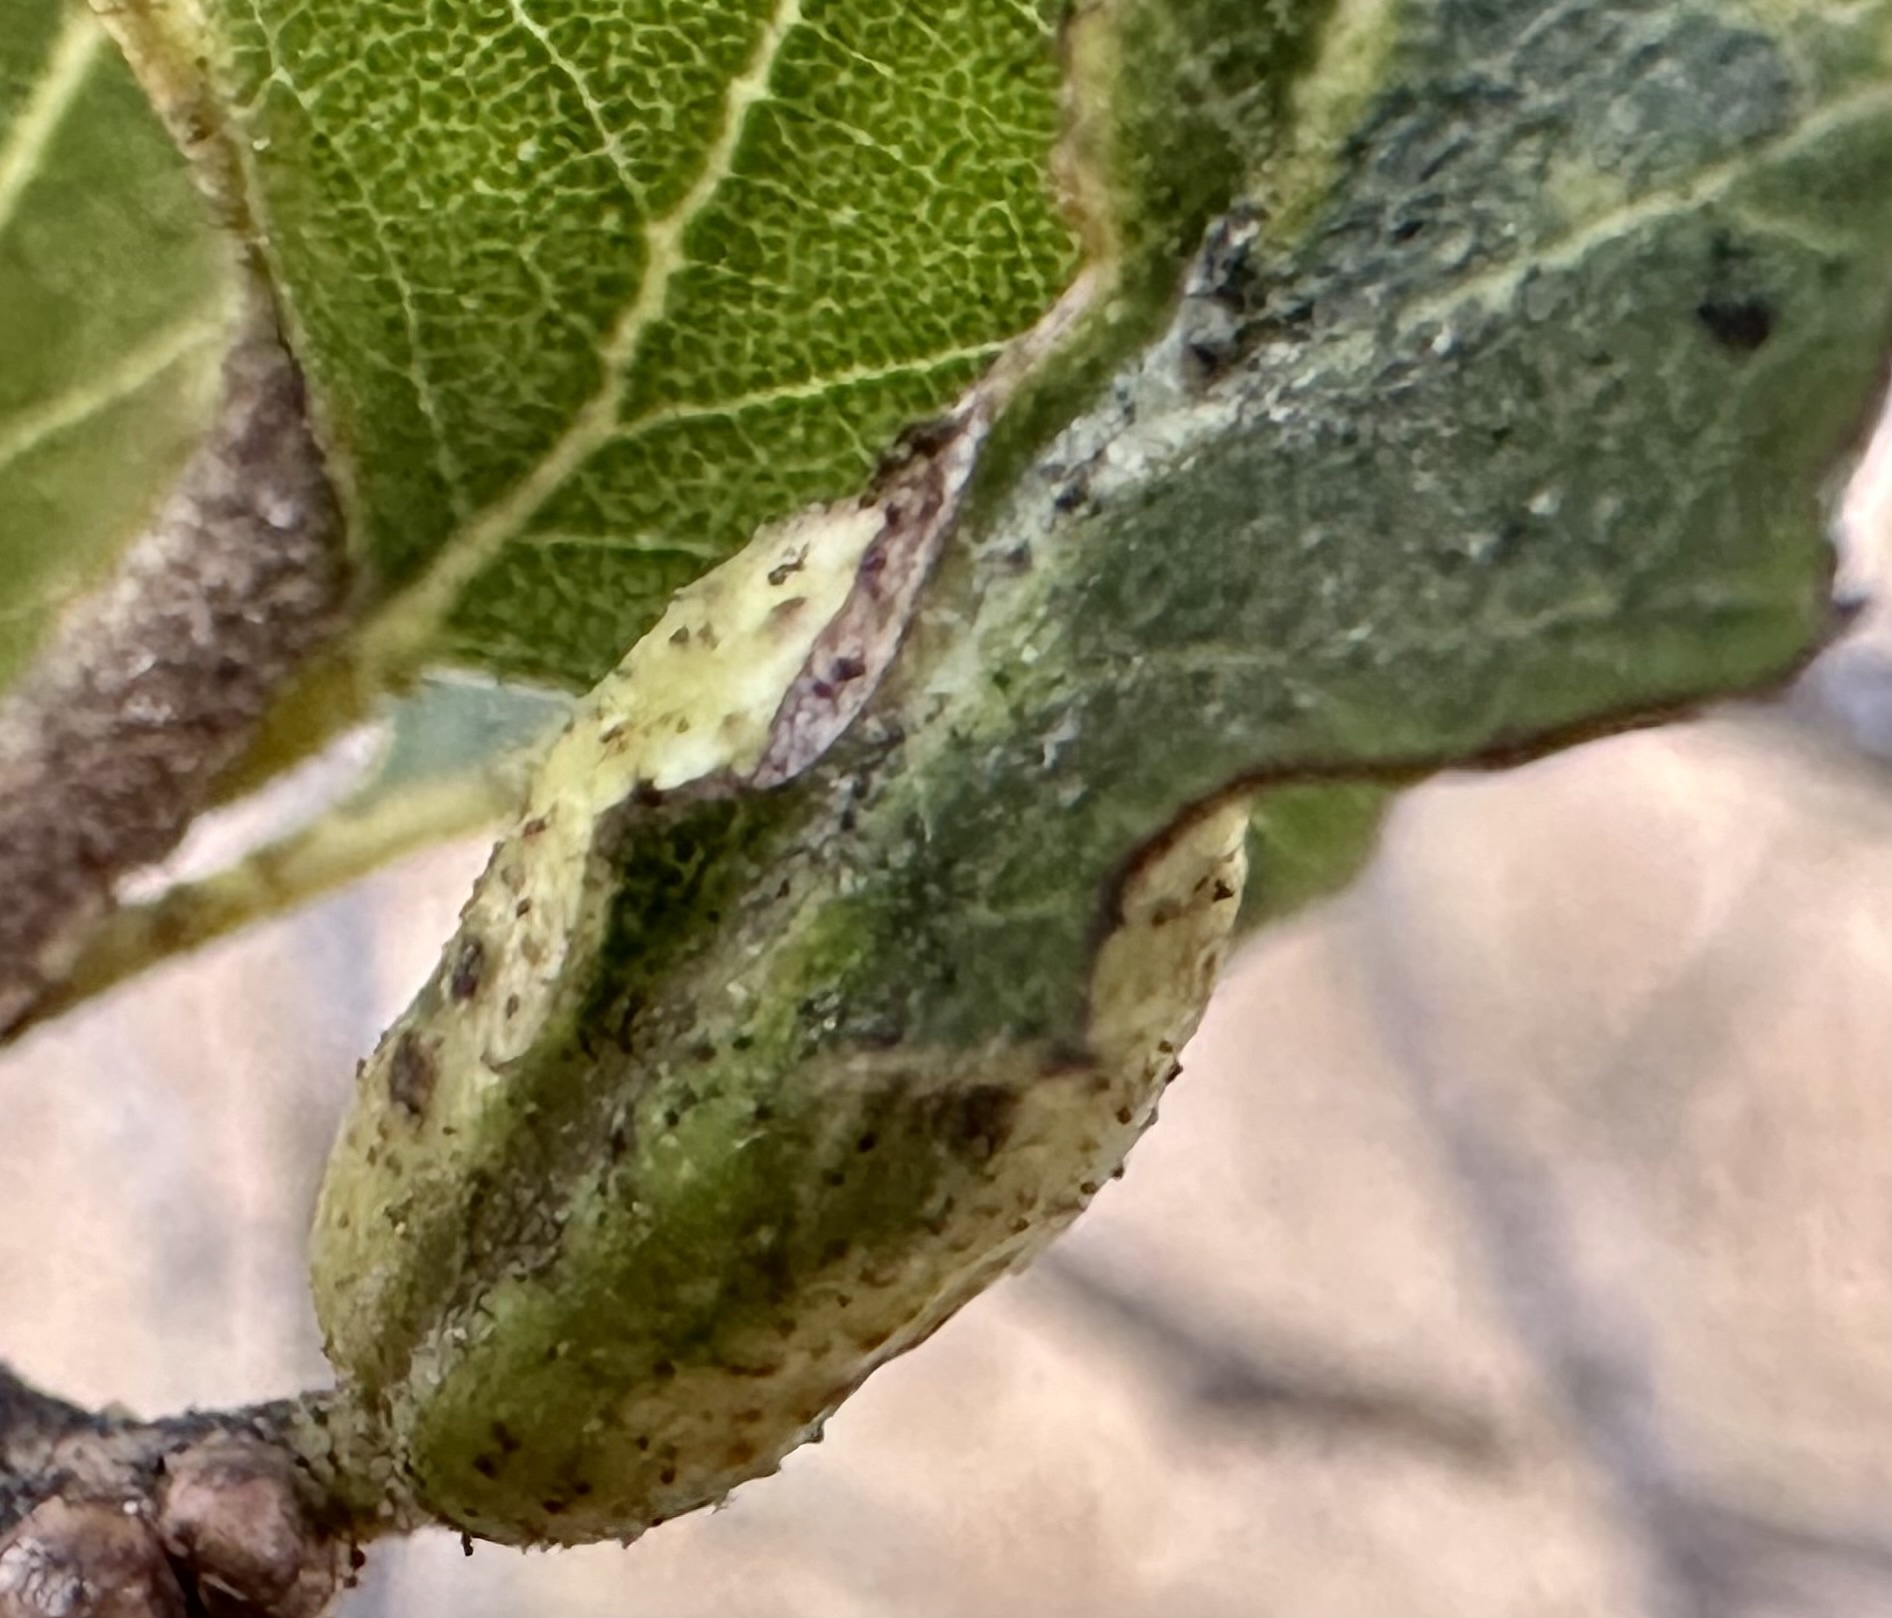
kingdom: Animalia
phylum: Arthropoda
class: Insecta
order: Hymenoptera
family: Cynipidae
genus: Melikaiella
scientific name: Melikaiella
